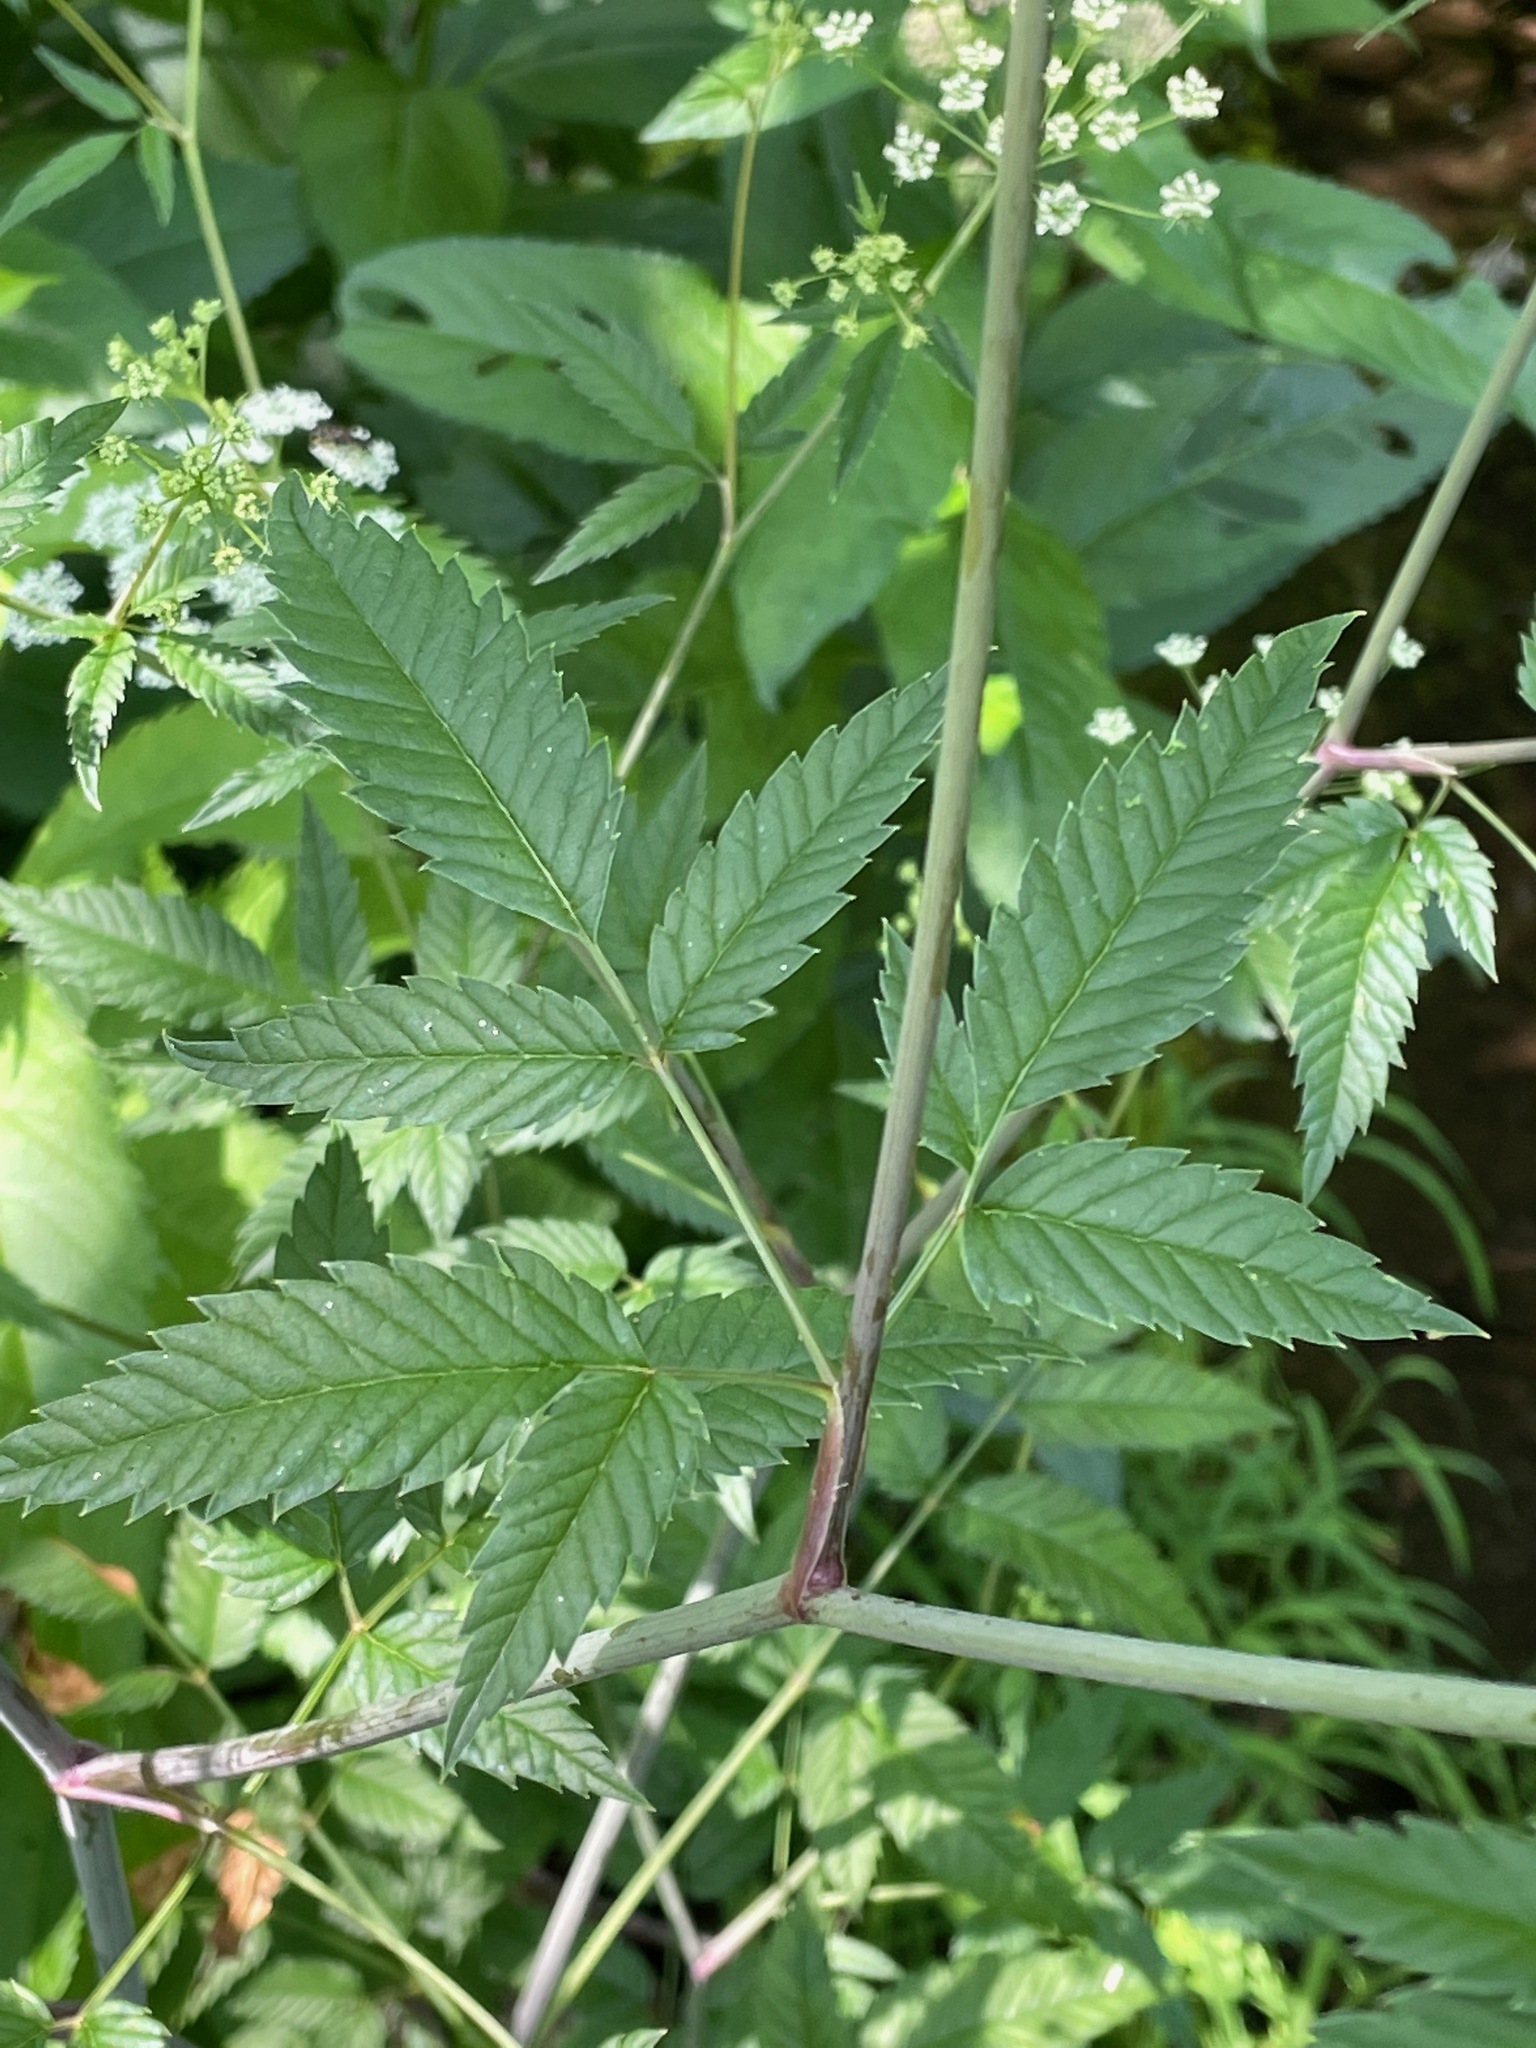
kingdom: Plantae
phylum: Tracheophyta
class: Magnoliopsida
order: Apiales
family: Apiaceae
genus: Cicuta
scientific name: Cicuta maculata
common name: Spotted cowbane
